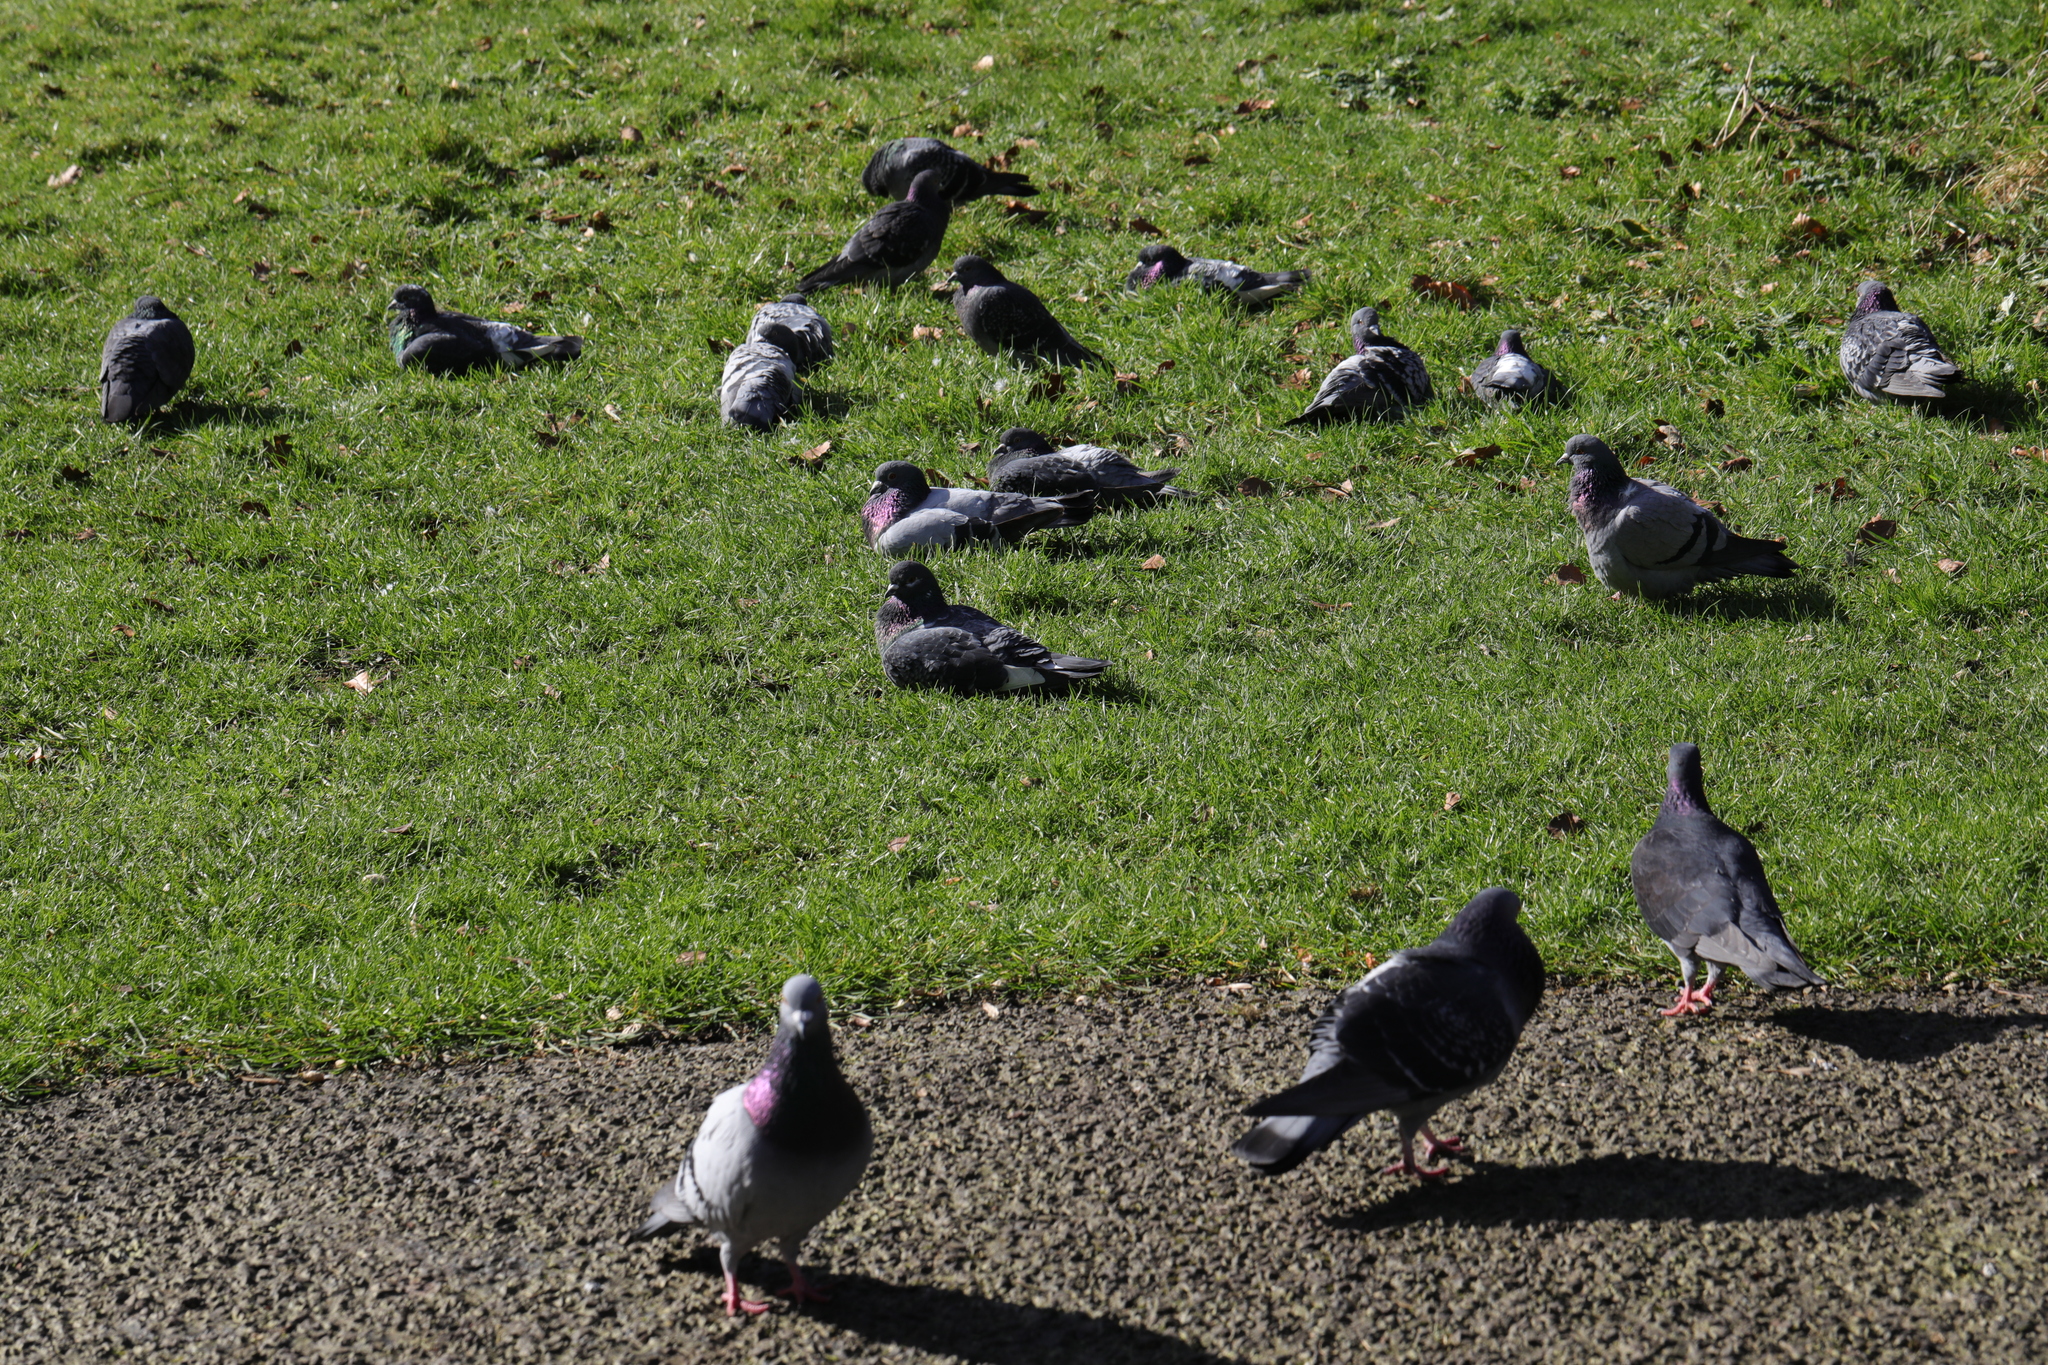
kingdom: Animalia
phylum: Chordata
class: Aves
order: Columbiformes
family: Columbidae
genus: Columba
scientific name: Columba livia
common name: Rock pigeon
